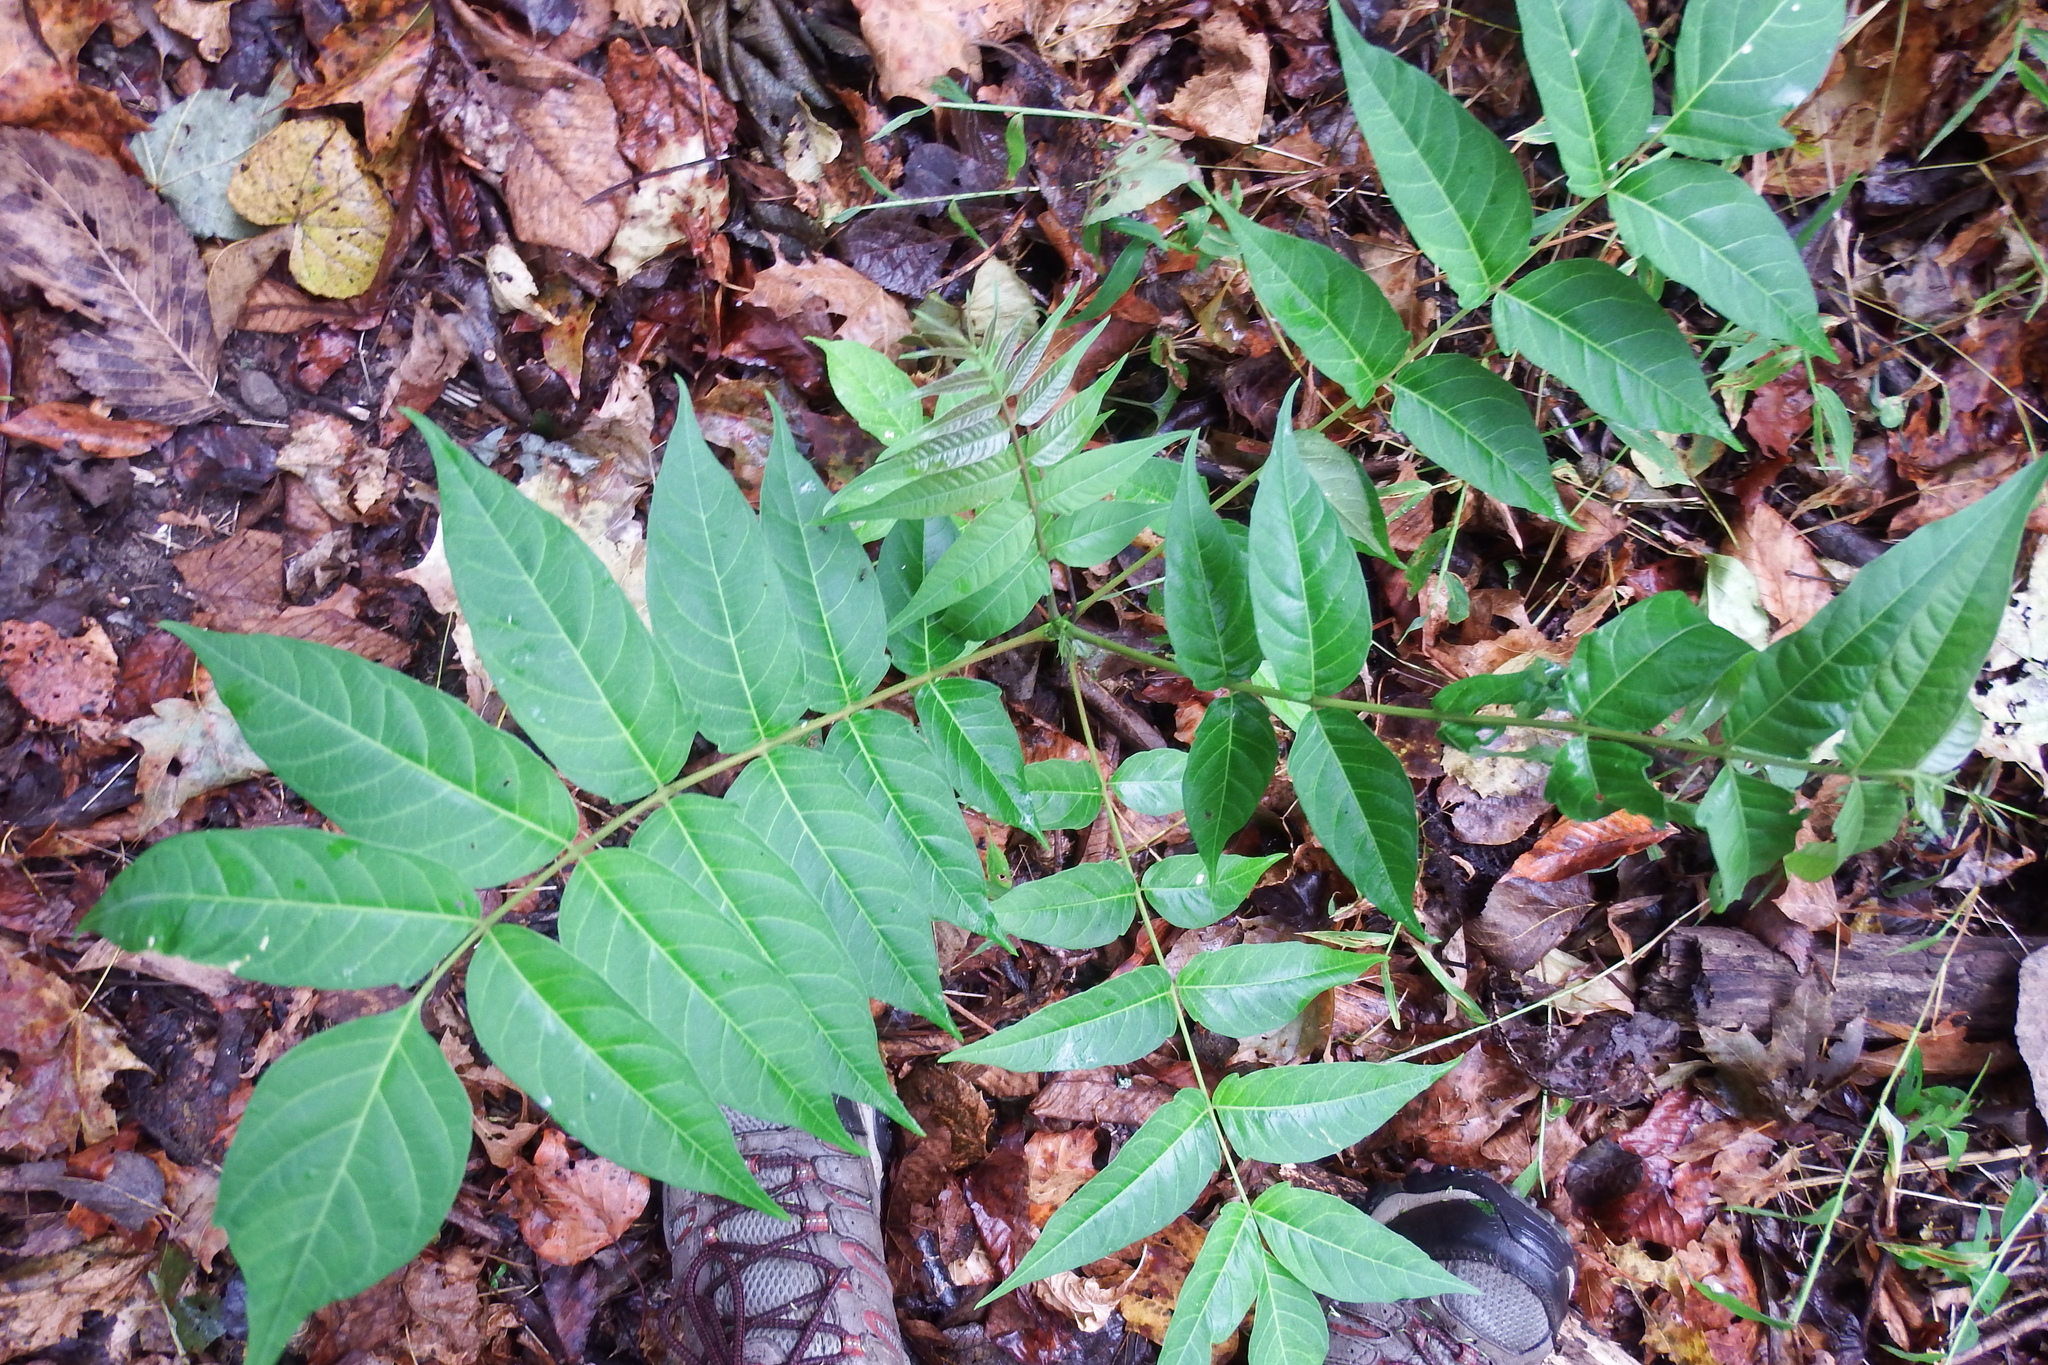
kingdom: Plantae
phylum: Tracheophyta
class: Magnoliopsida
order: Sapindales
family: Simaroubaceae
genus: Ailanthus
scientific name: Ailanthus altissima
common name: Tree-of-heaven
